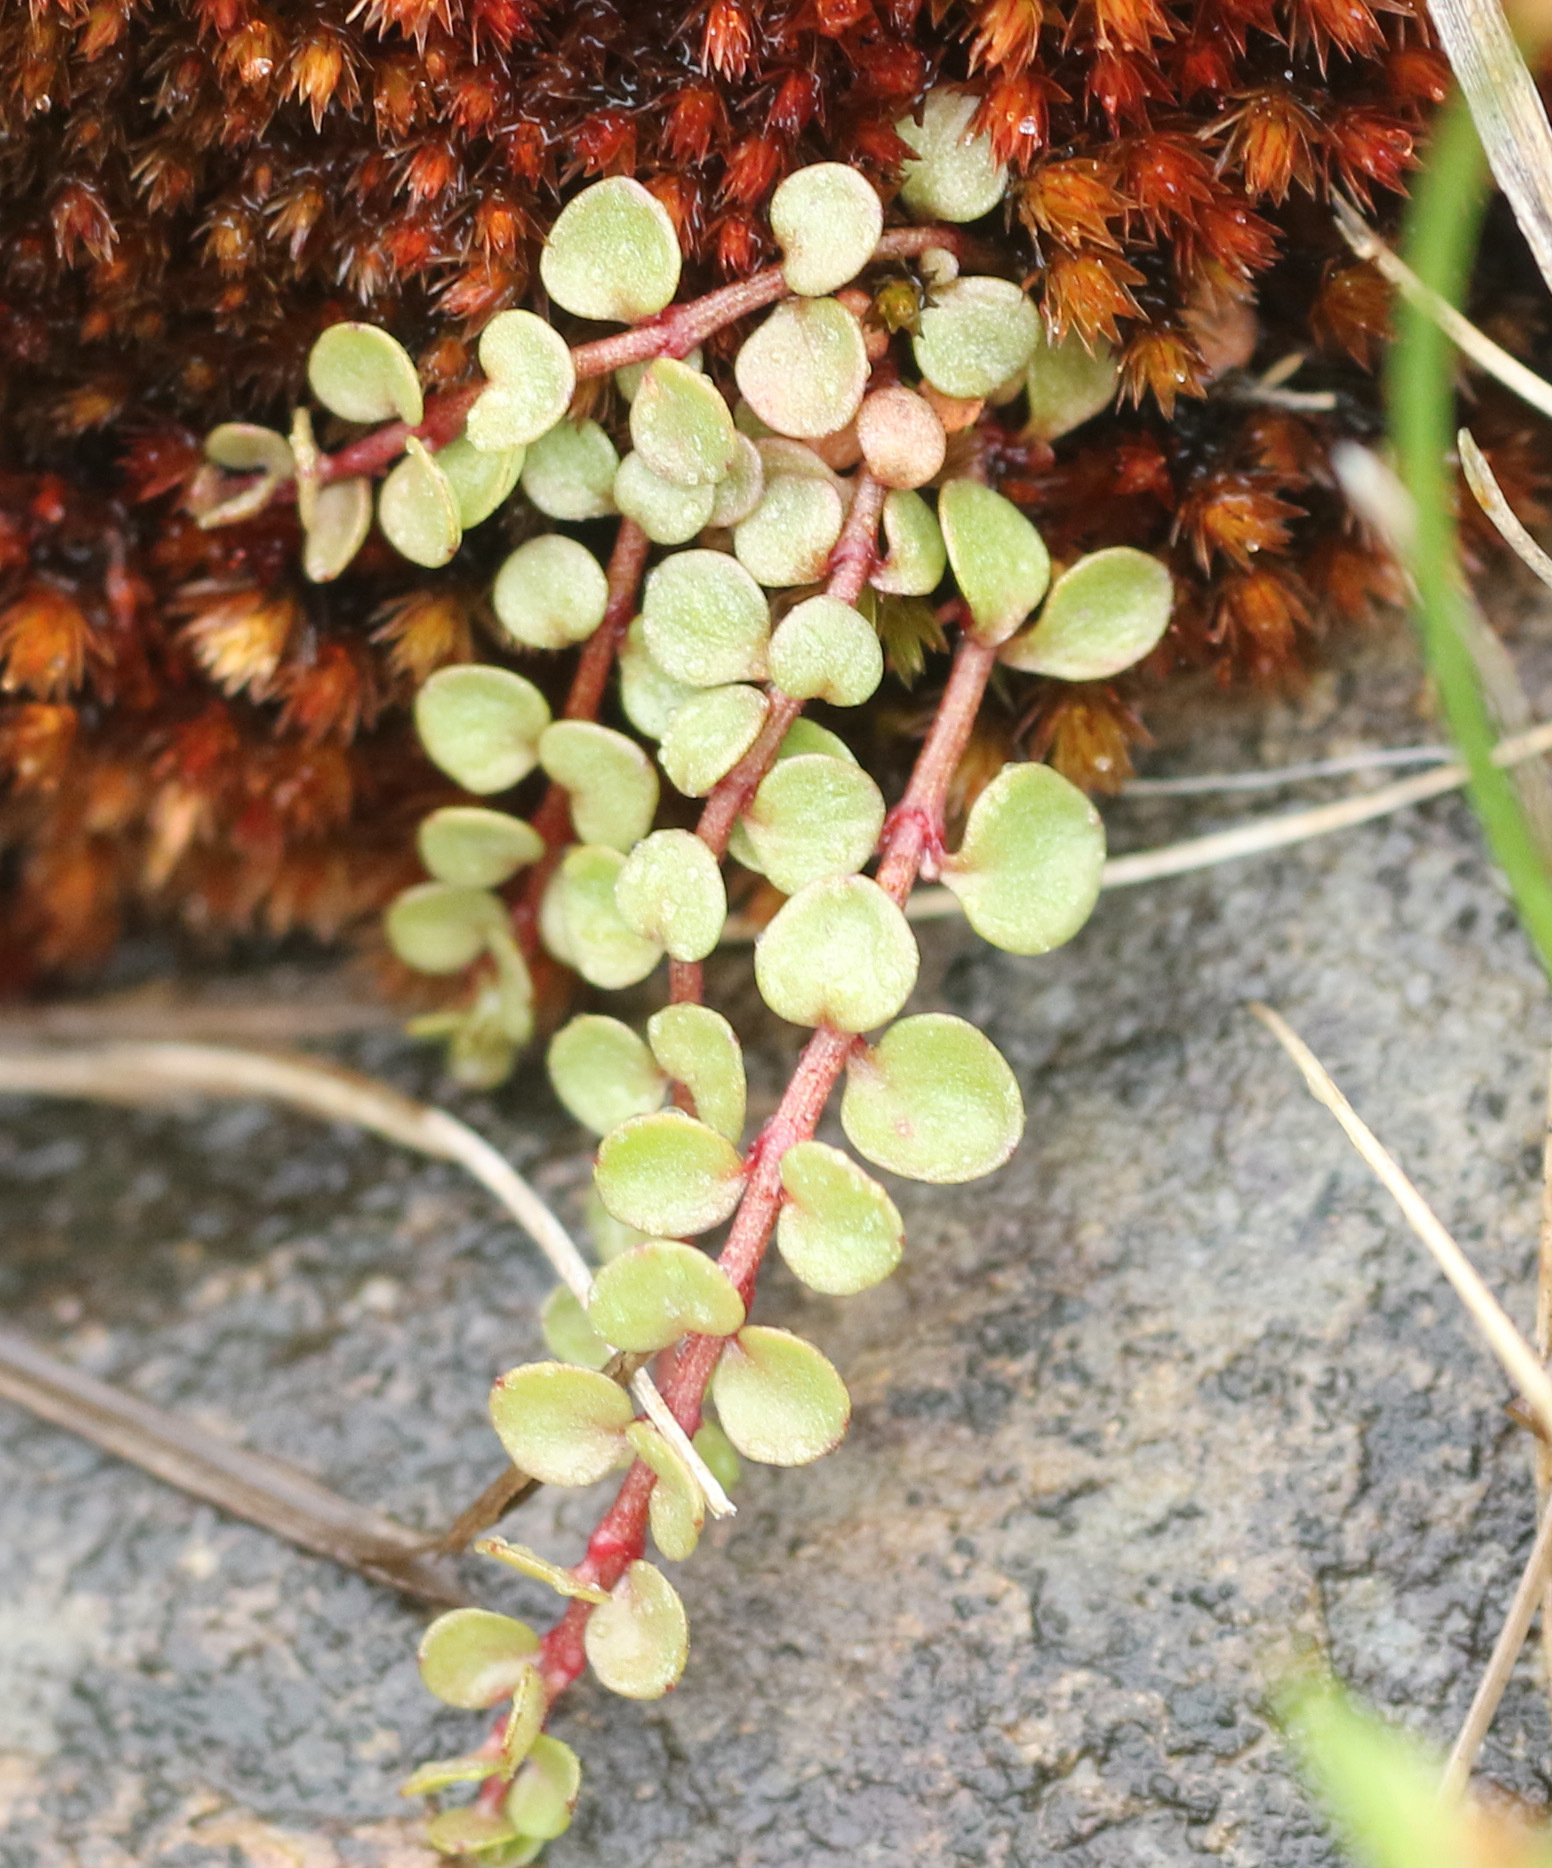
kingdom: Plantae
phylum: Tracheophyta
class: Magnoliopsida
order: Myrtales
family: Onagraceae
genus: Epilobium
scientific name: Epilobium brunnescens
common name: New zealand willowherb
